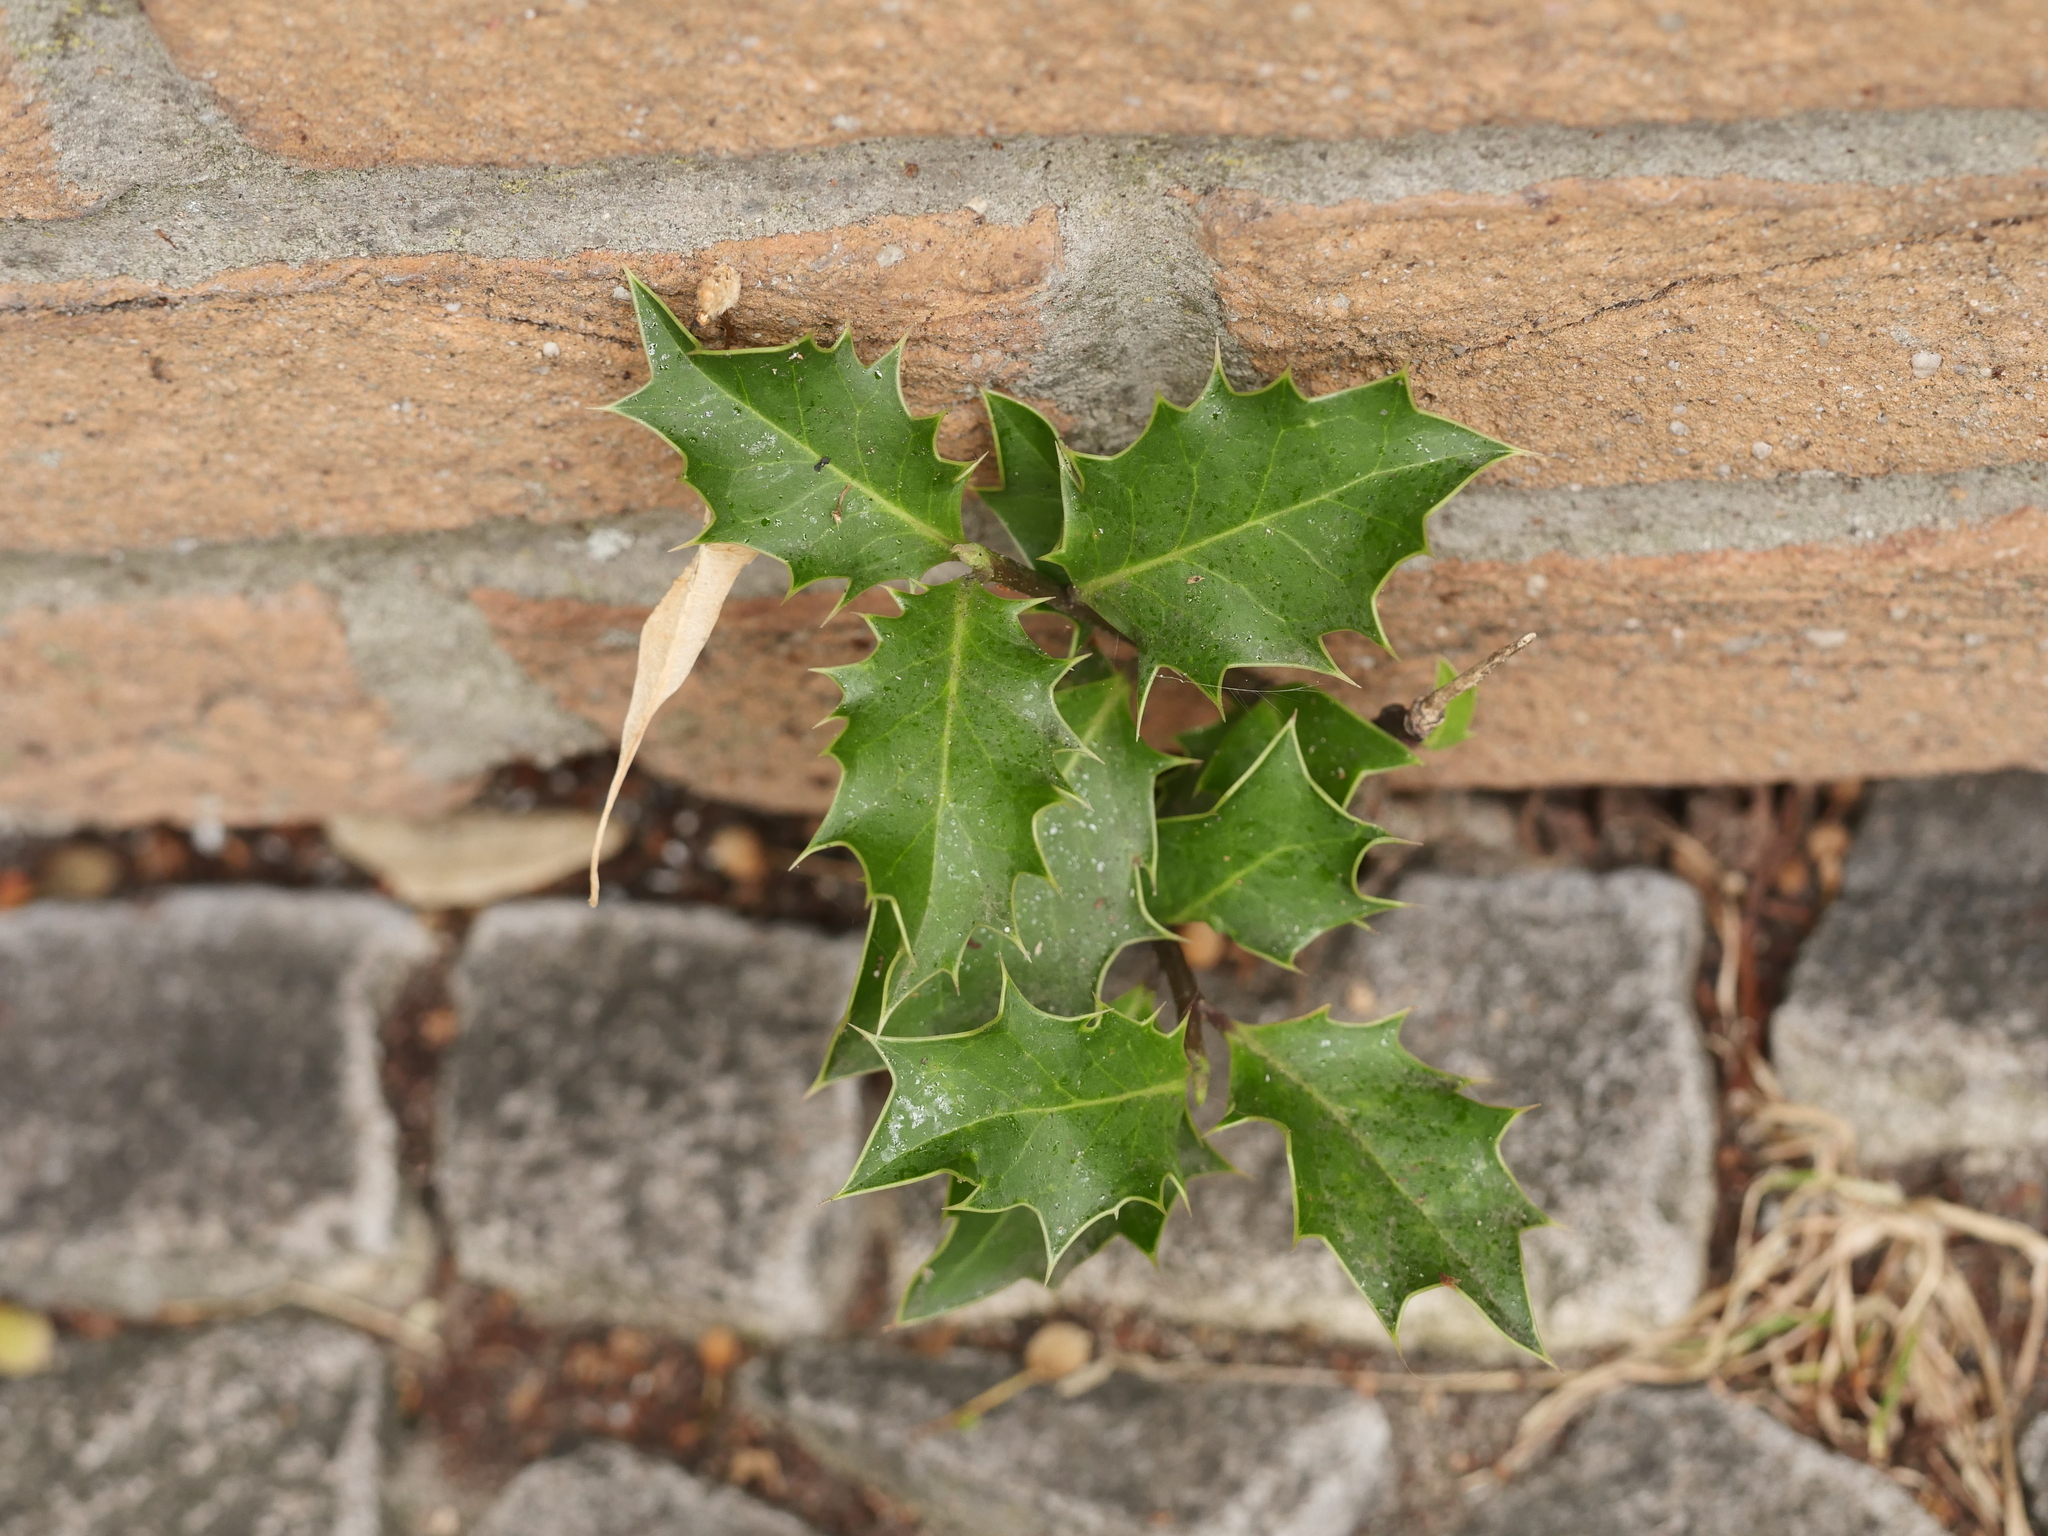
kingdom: Plantae
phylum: Tracheophyta
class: Magnoliopsida
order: Aquifoliales
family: Aquifoliaceae
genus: Ilex
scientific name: Ilex aquifolium
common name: English holly
